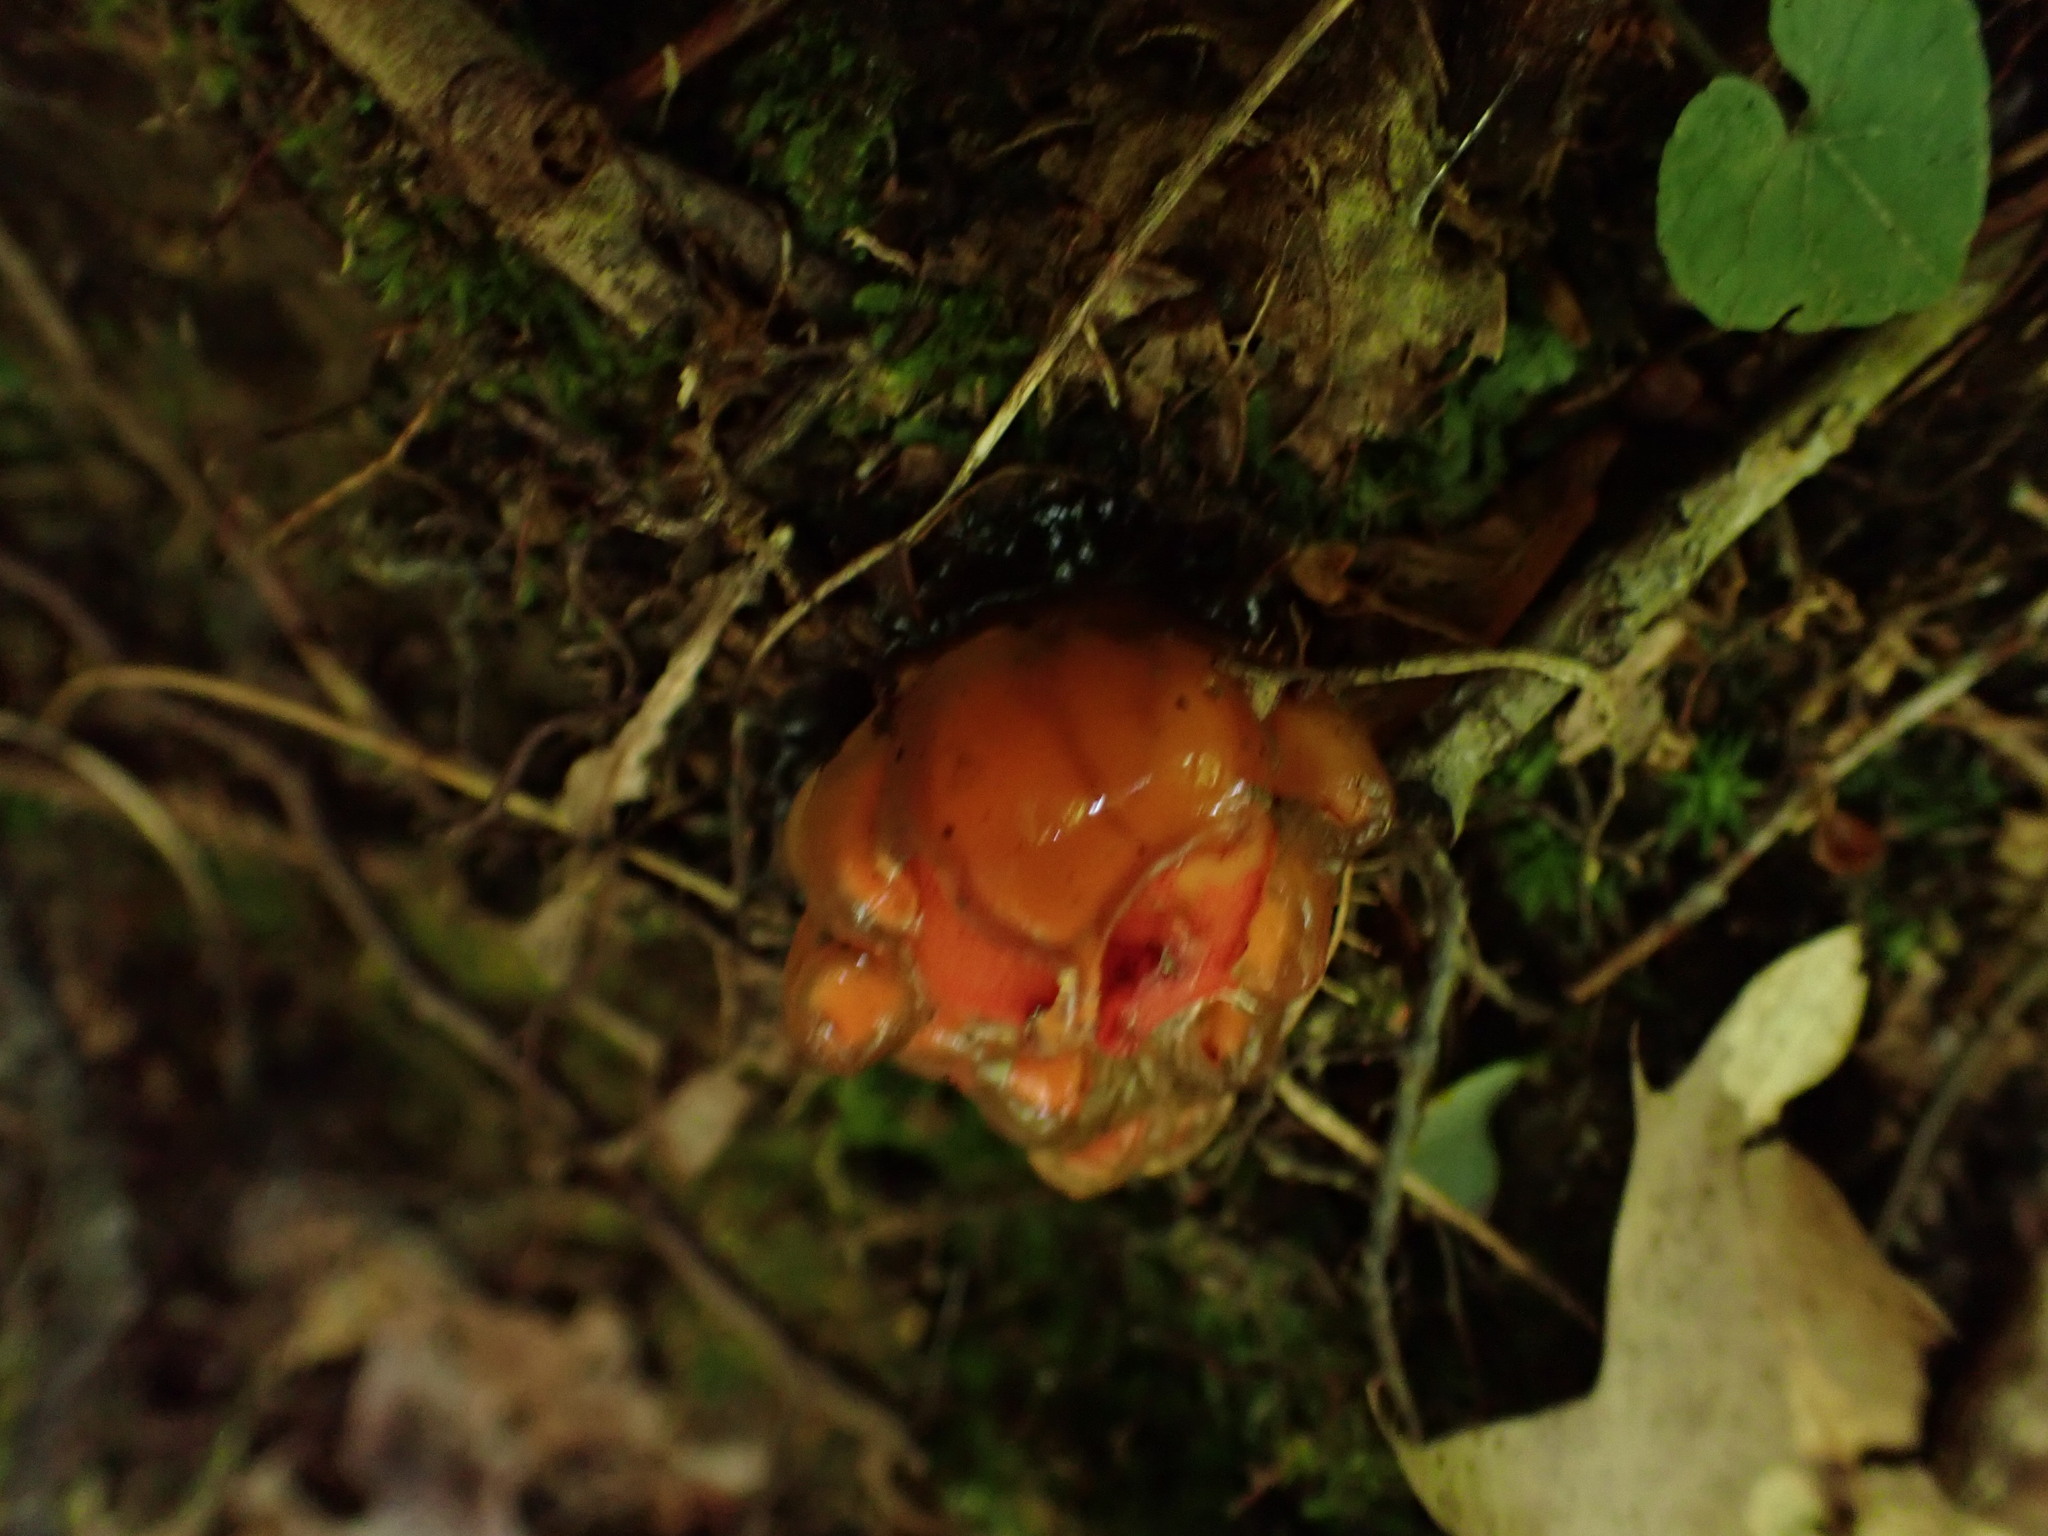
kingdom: Fungi
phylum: Basidiomycota
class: Agaricomycetes
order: Boletales
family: Calostomataceae
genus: Calostoma
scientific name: Calostoma cinnabarinum
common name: Stalked puffball-in-aspic
